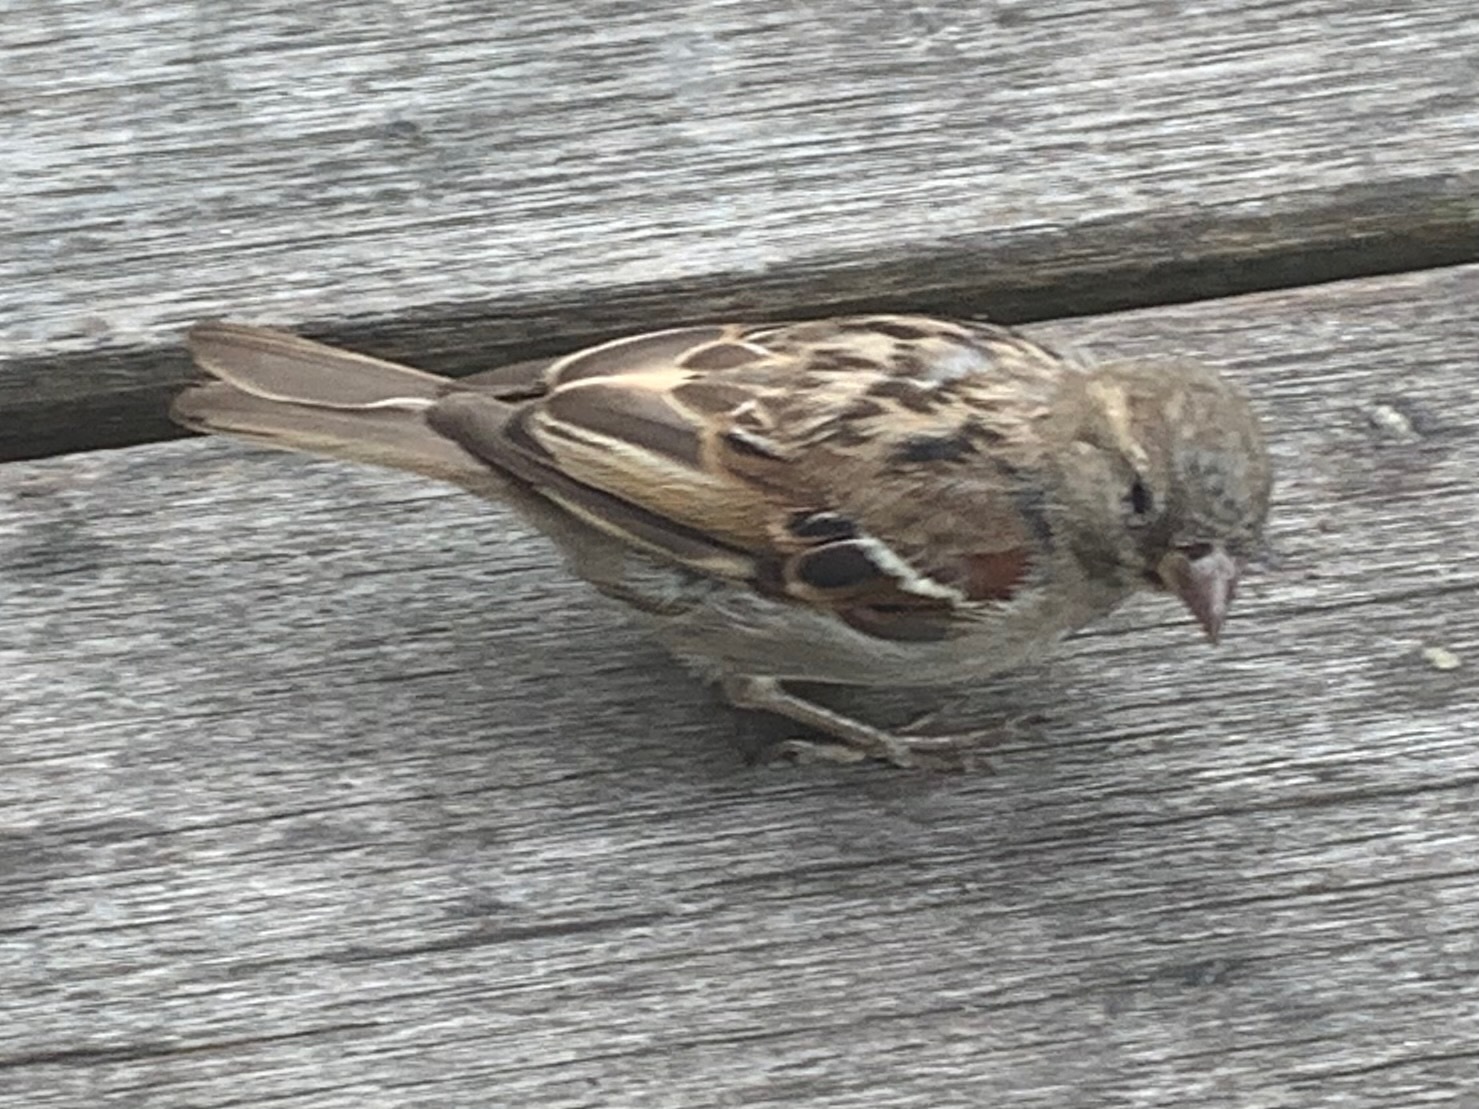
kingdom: Animalia
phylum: Chordata
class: Aves
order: Passeriformes
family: Passeridae
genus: Passer
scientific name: Passer domesticus
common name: House sparrow
